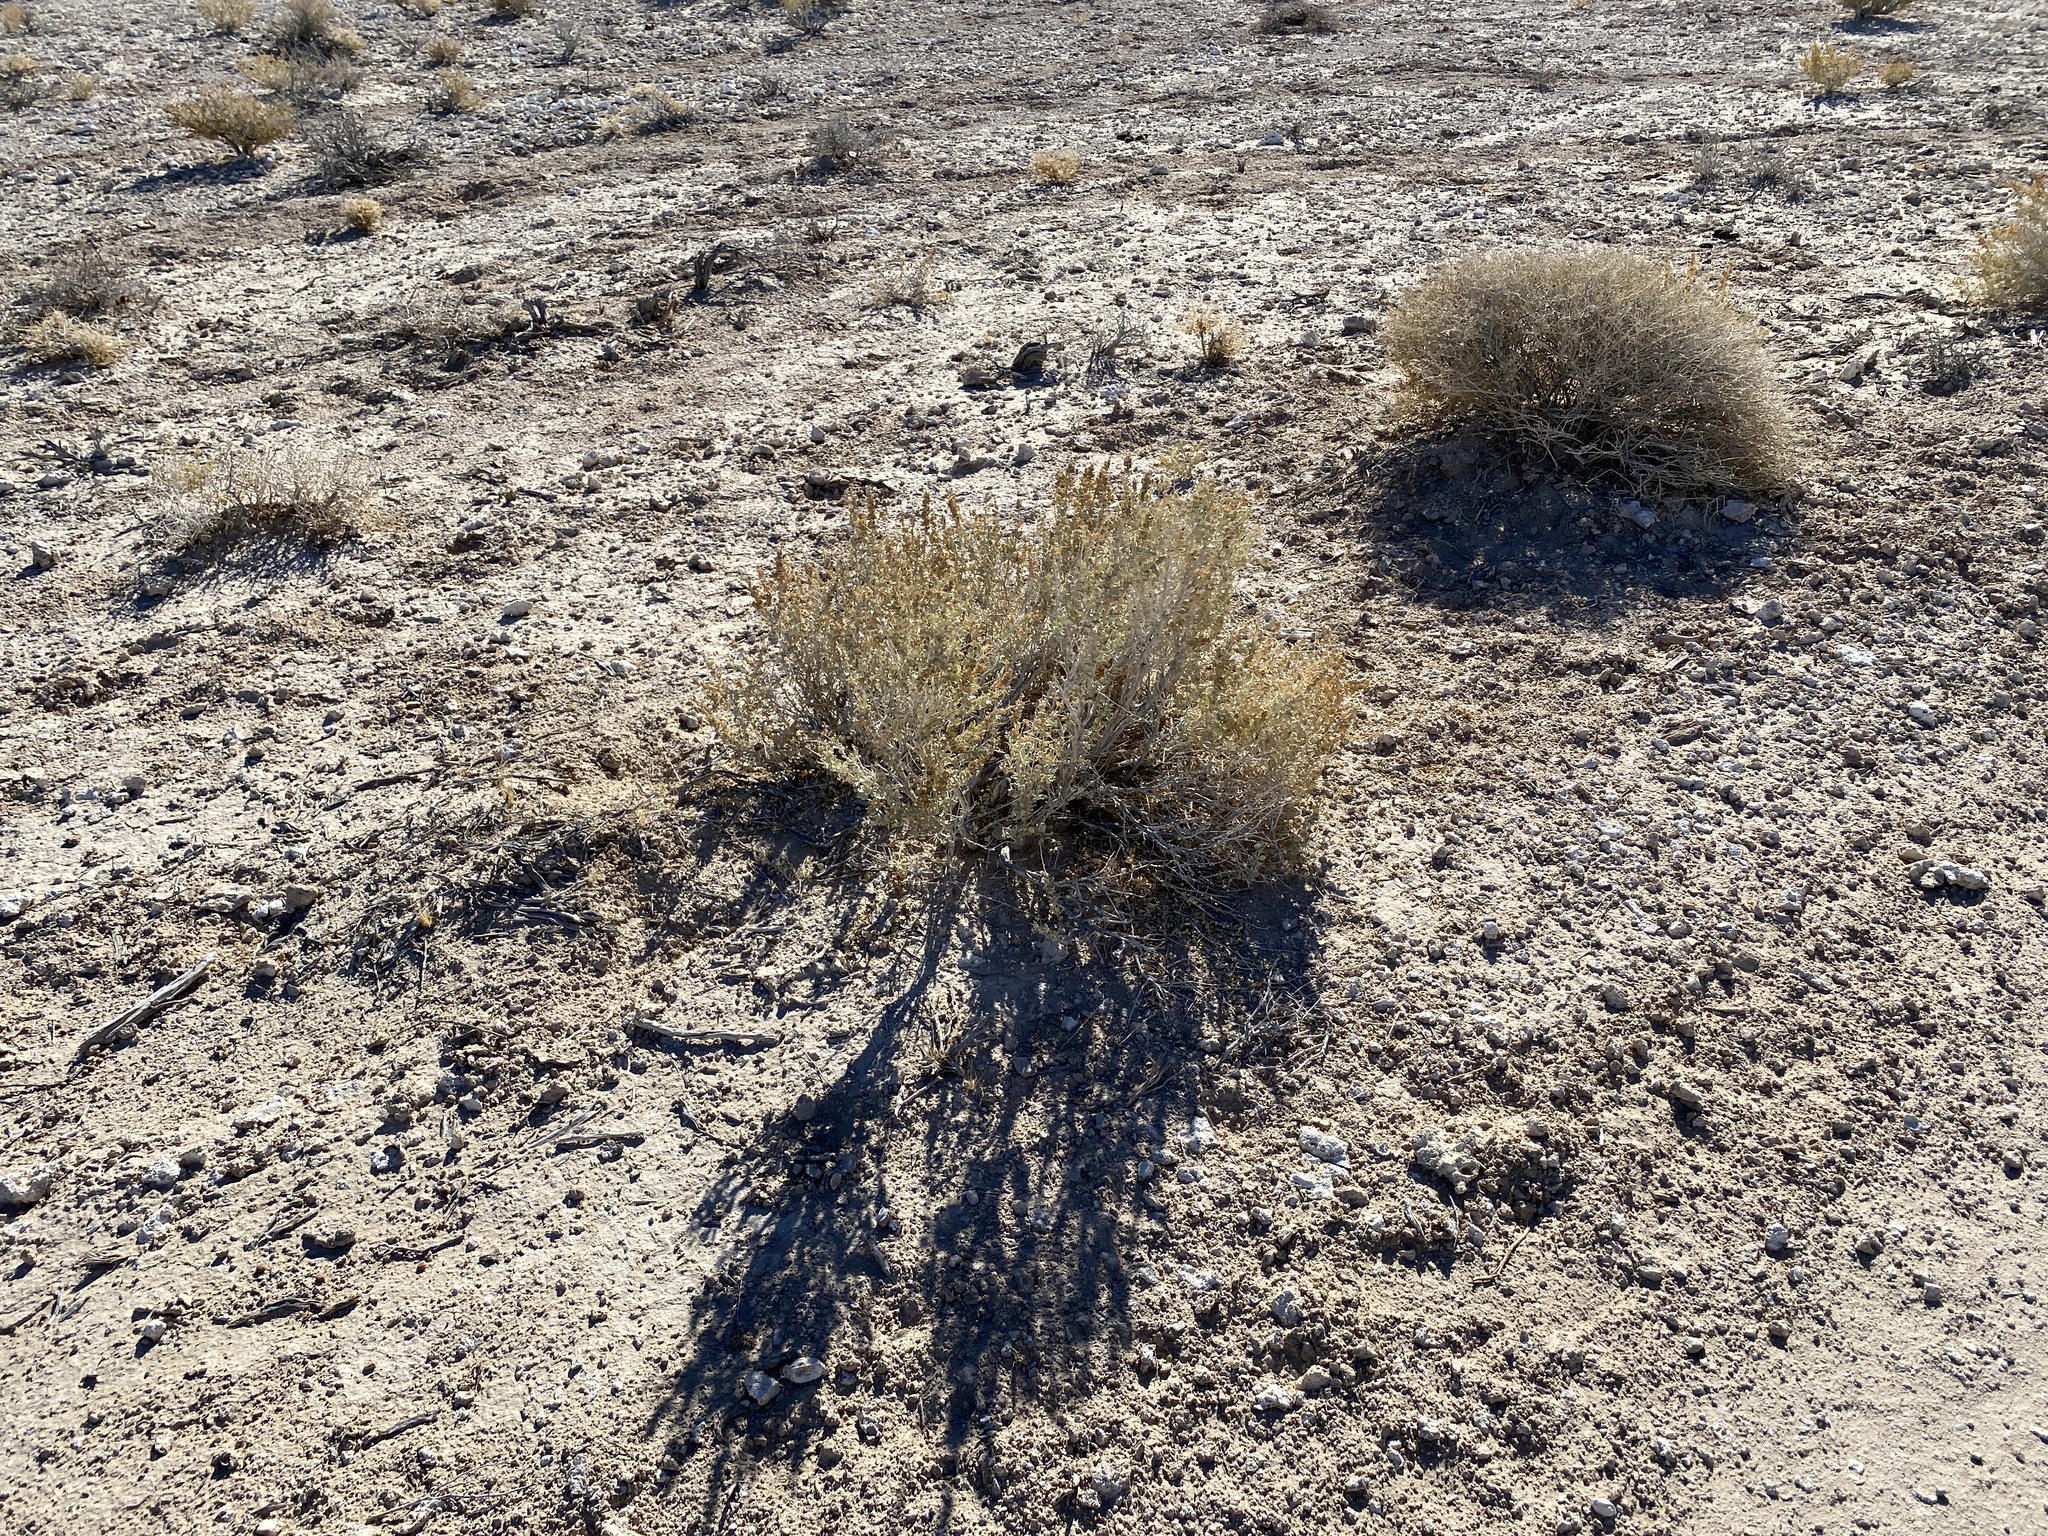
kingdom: Plantae
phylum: Tracheophyta
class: Magnoliopsida
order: Caryophyllales
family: Amaranthaceae
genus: Atriplex
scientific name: Atriplex confertifolia
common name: Shadscale
